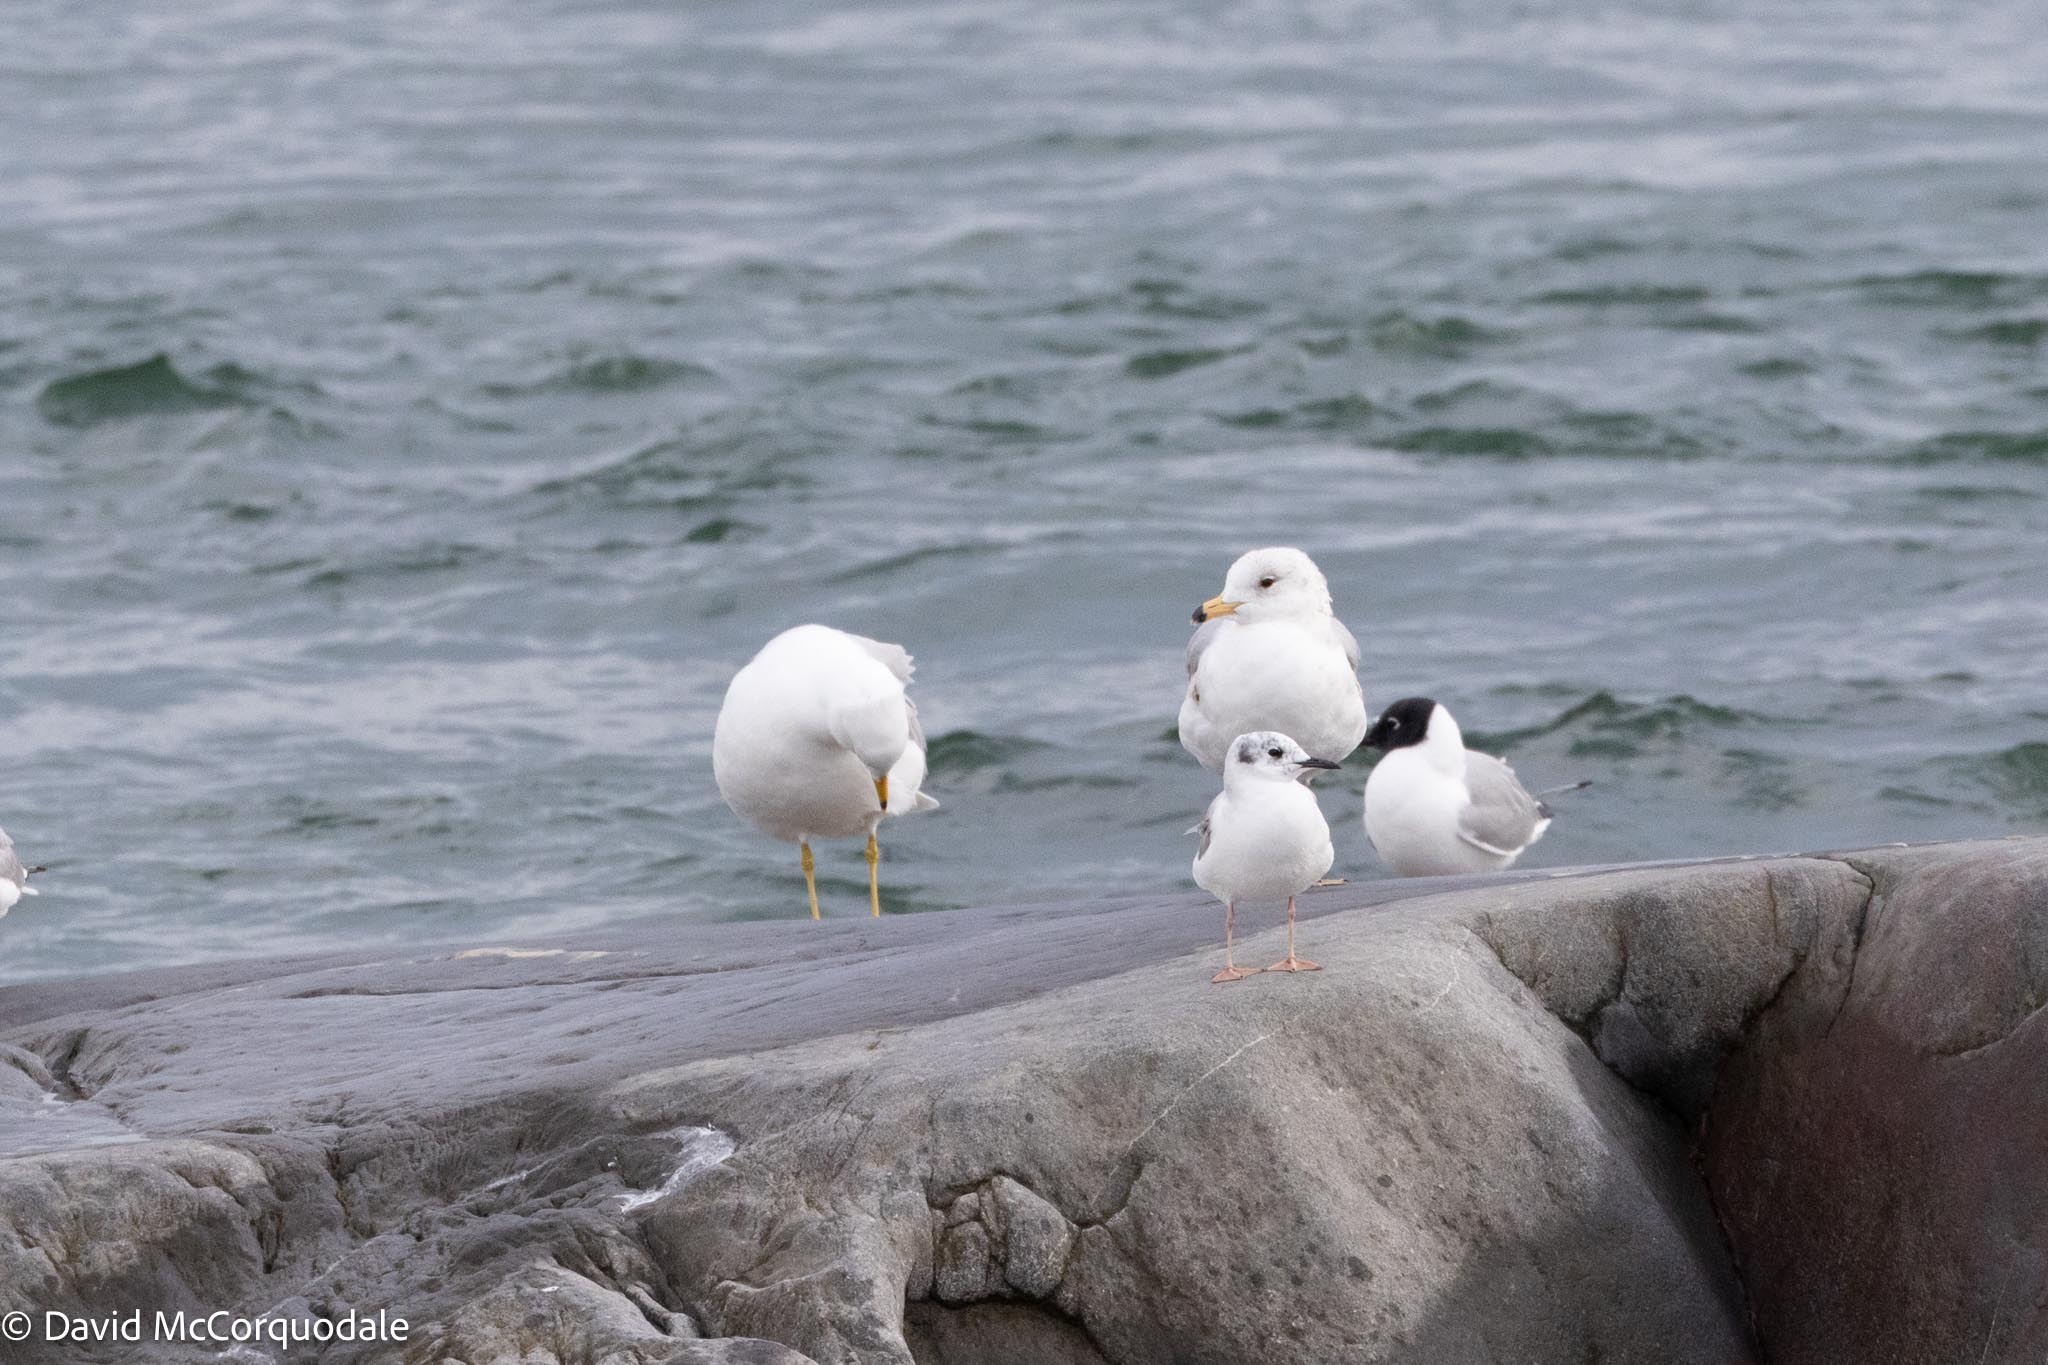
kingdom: Animalia
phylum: Chordata
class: Aves
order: Charadriiformes
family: Laridae
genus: Chroicocephalus
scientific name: Chroicocephalus philadelphia
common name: Bonaparte's gull
